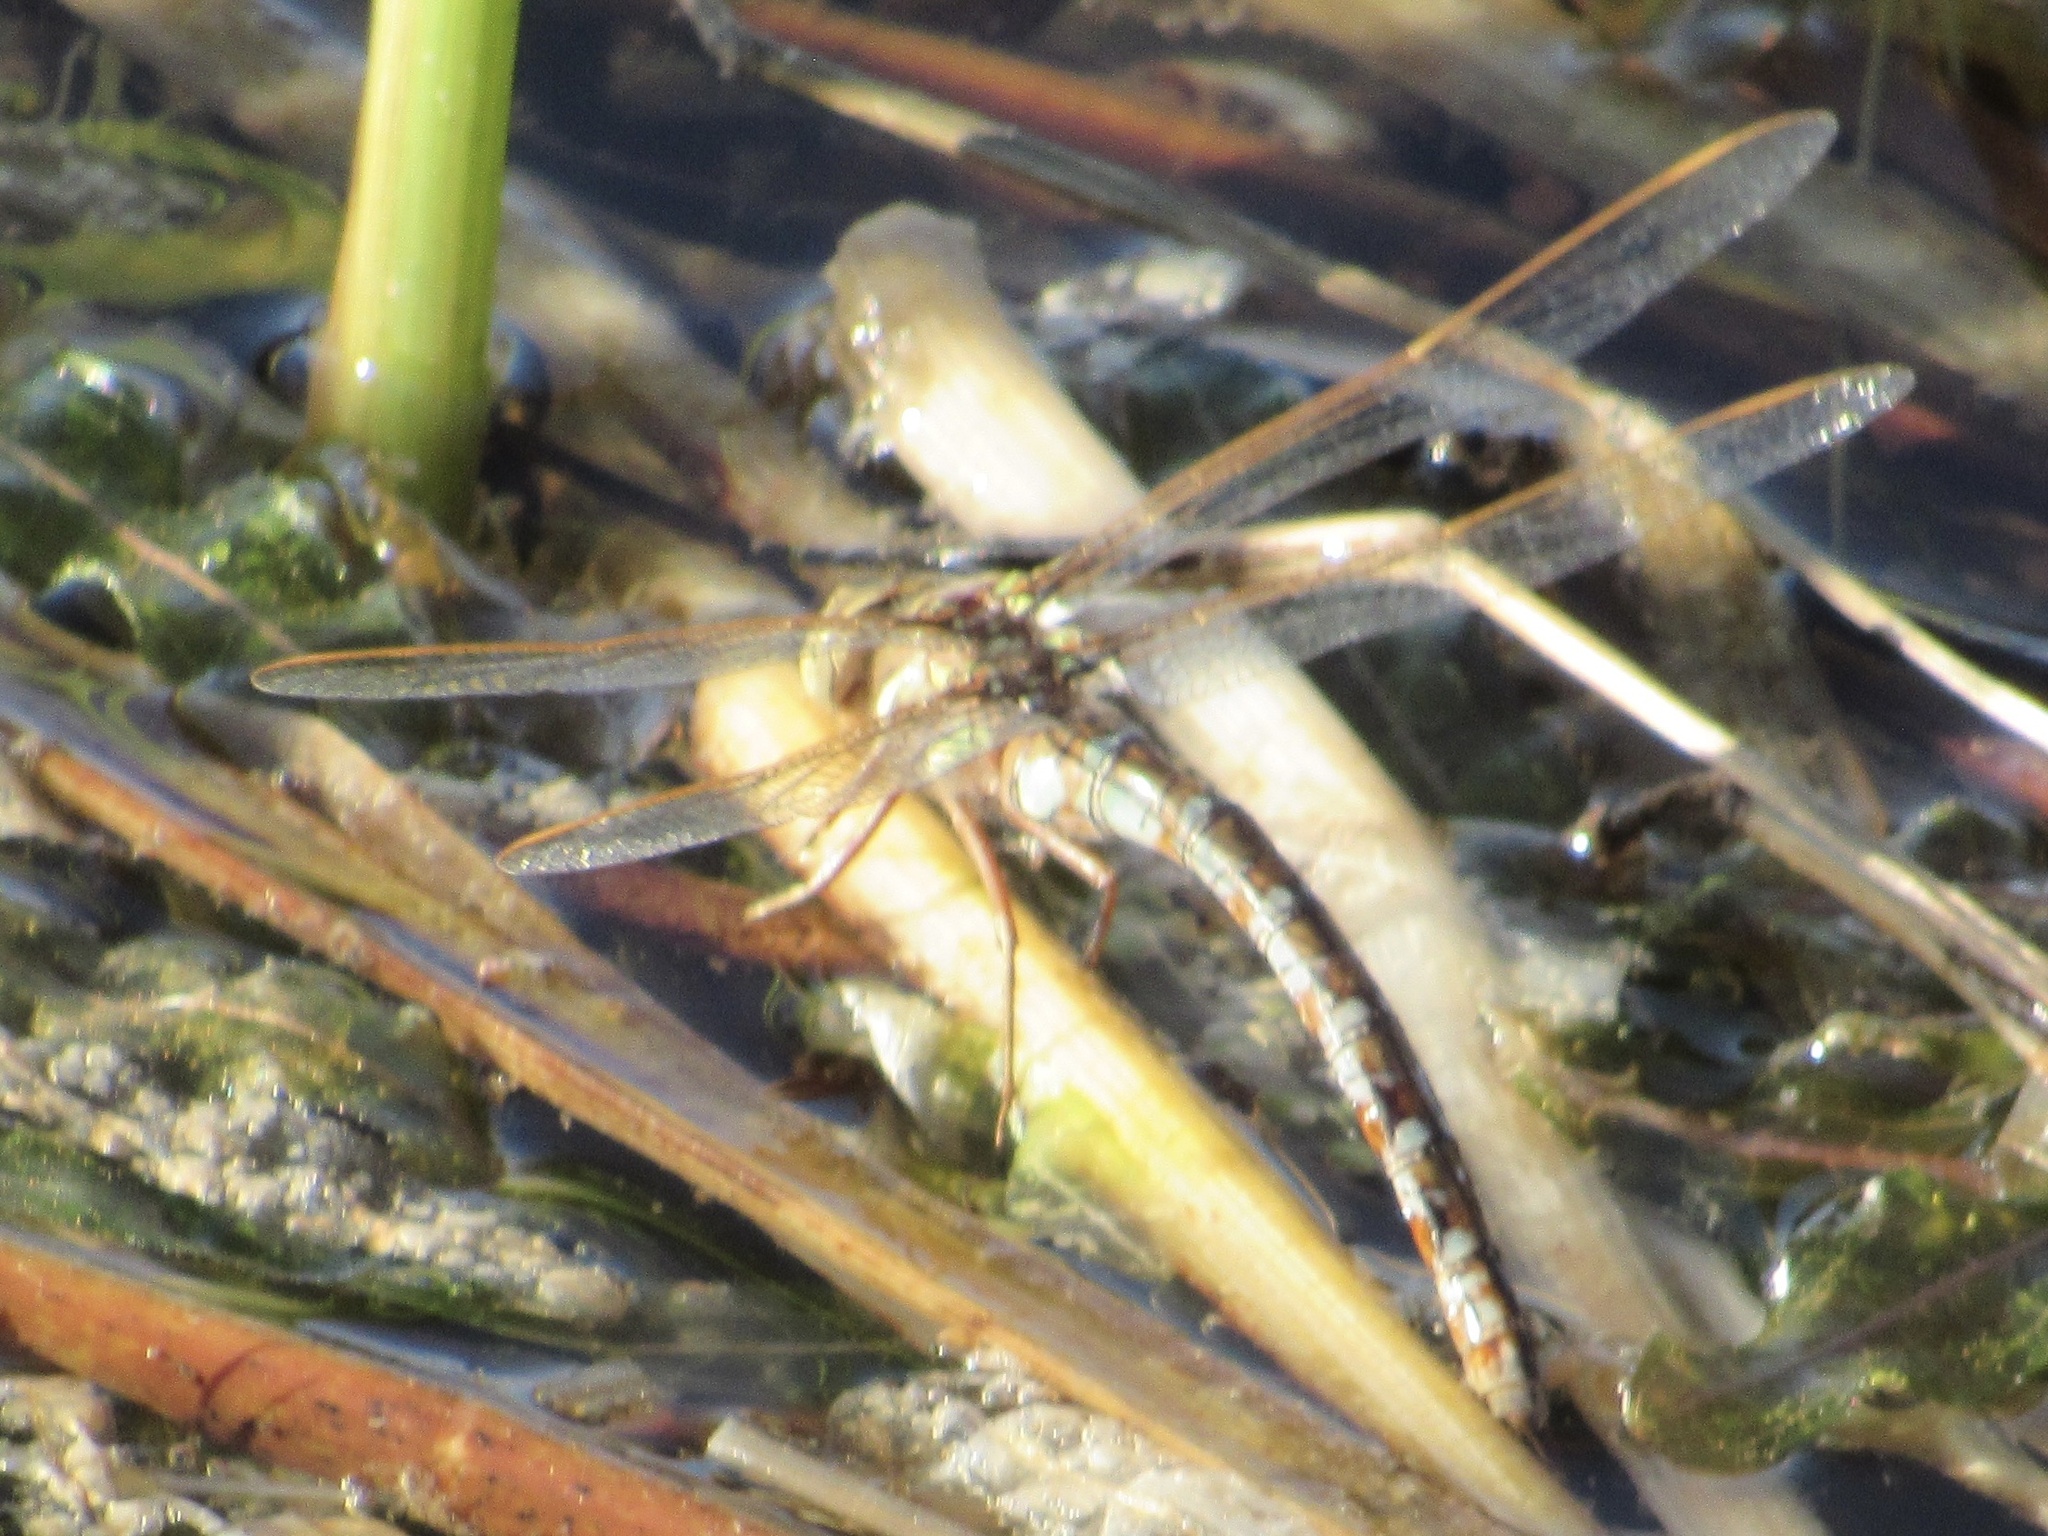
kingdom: Animalia
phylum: Arthropoda
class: Insecta
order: Odonata
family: Aeshnidae
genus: Basiaeschna
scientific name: Basiaeschna janata
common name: Springtime darner
